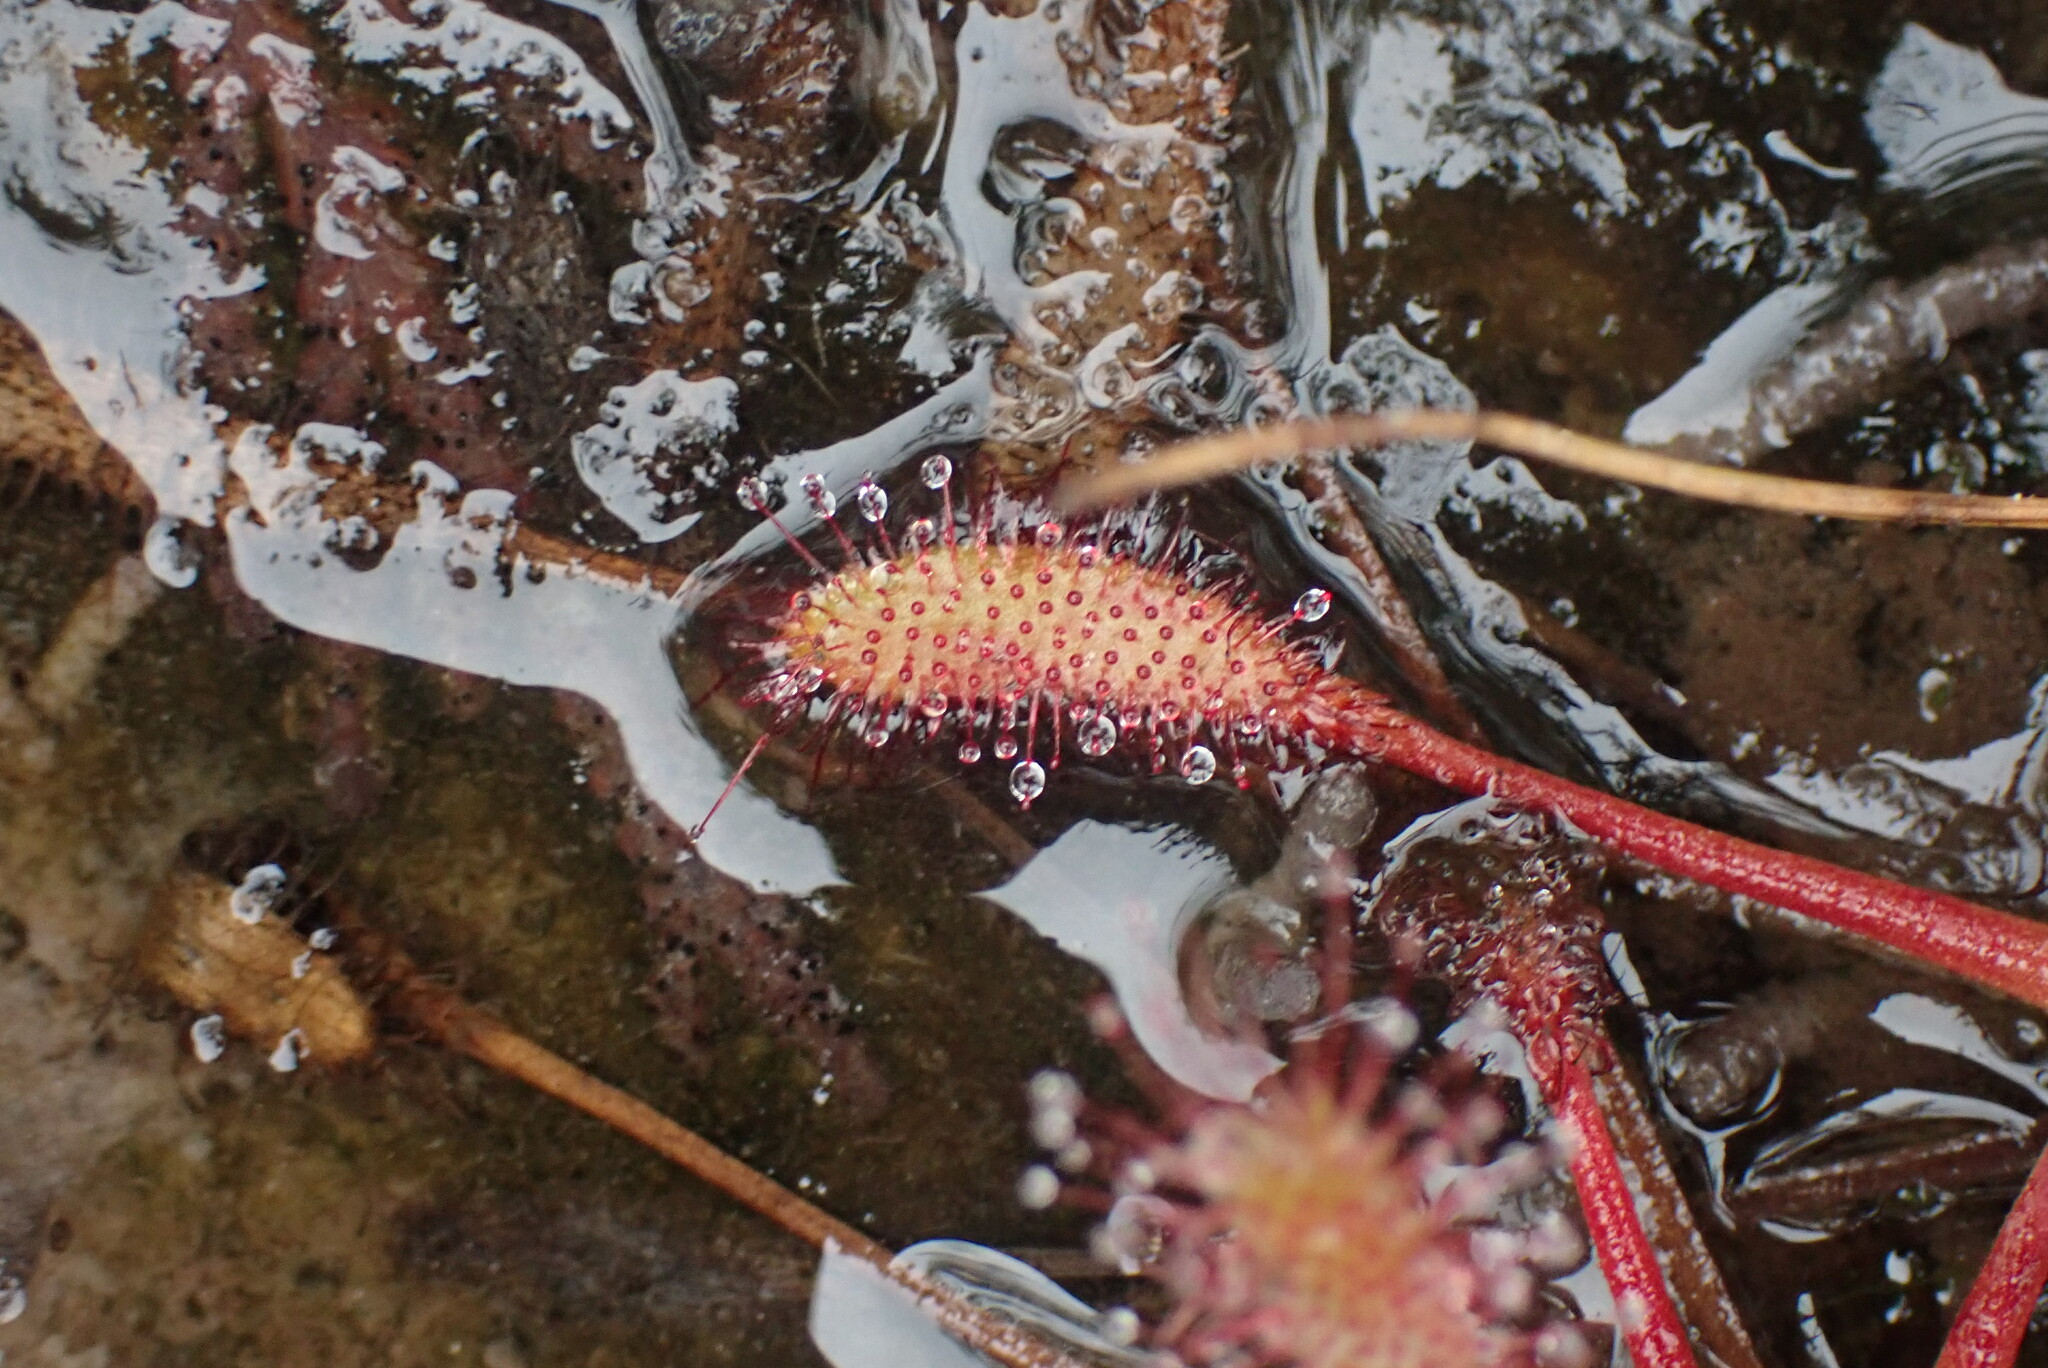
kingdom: Plantae
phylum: Tracheophyta
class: Magnoliopsida
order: Caryophyllales
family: Droseraceae
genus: Drosera
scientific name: Drosera anglica
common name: Great sundew
